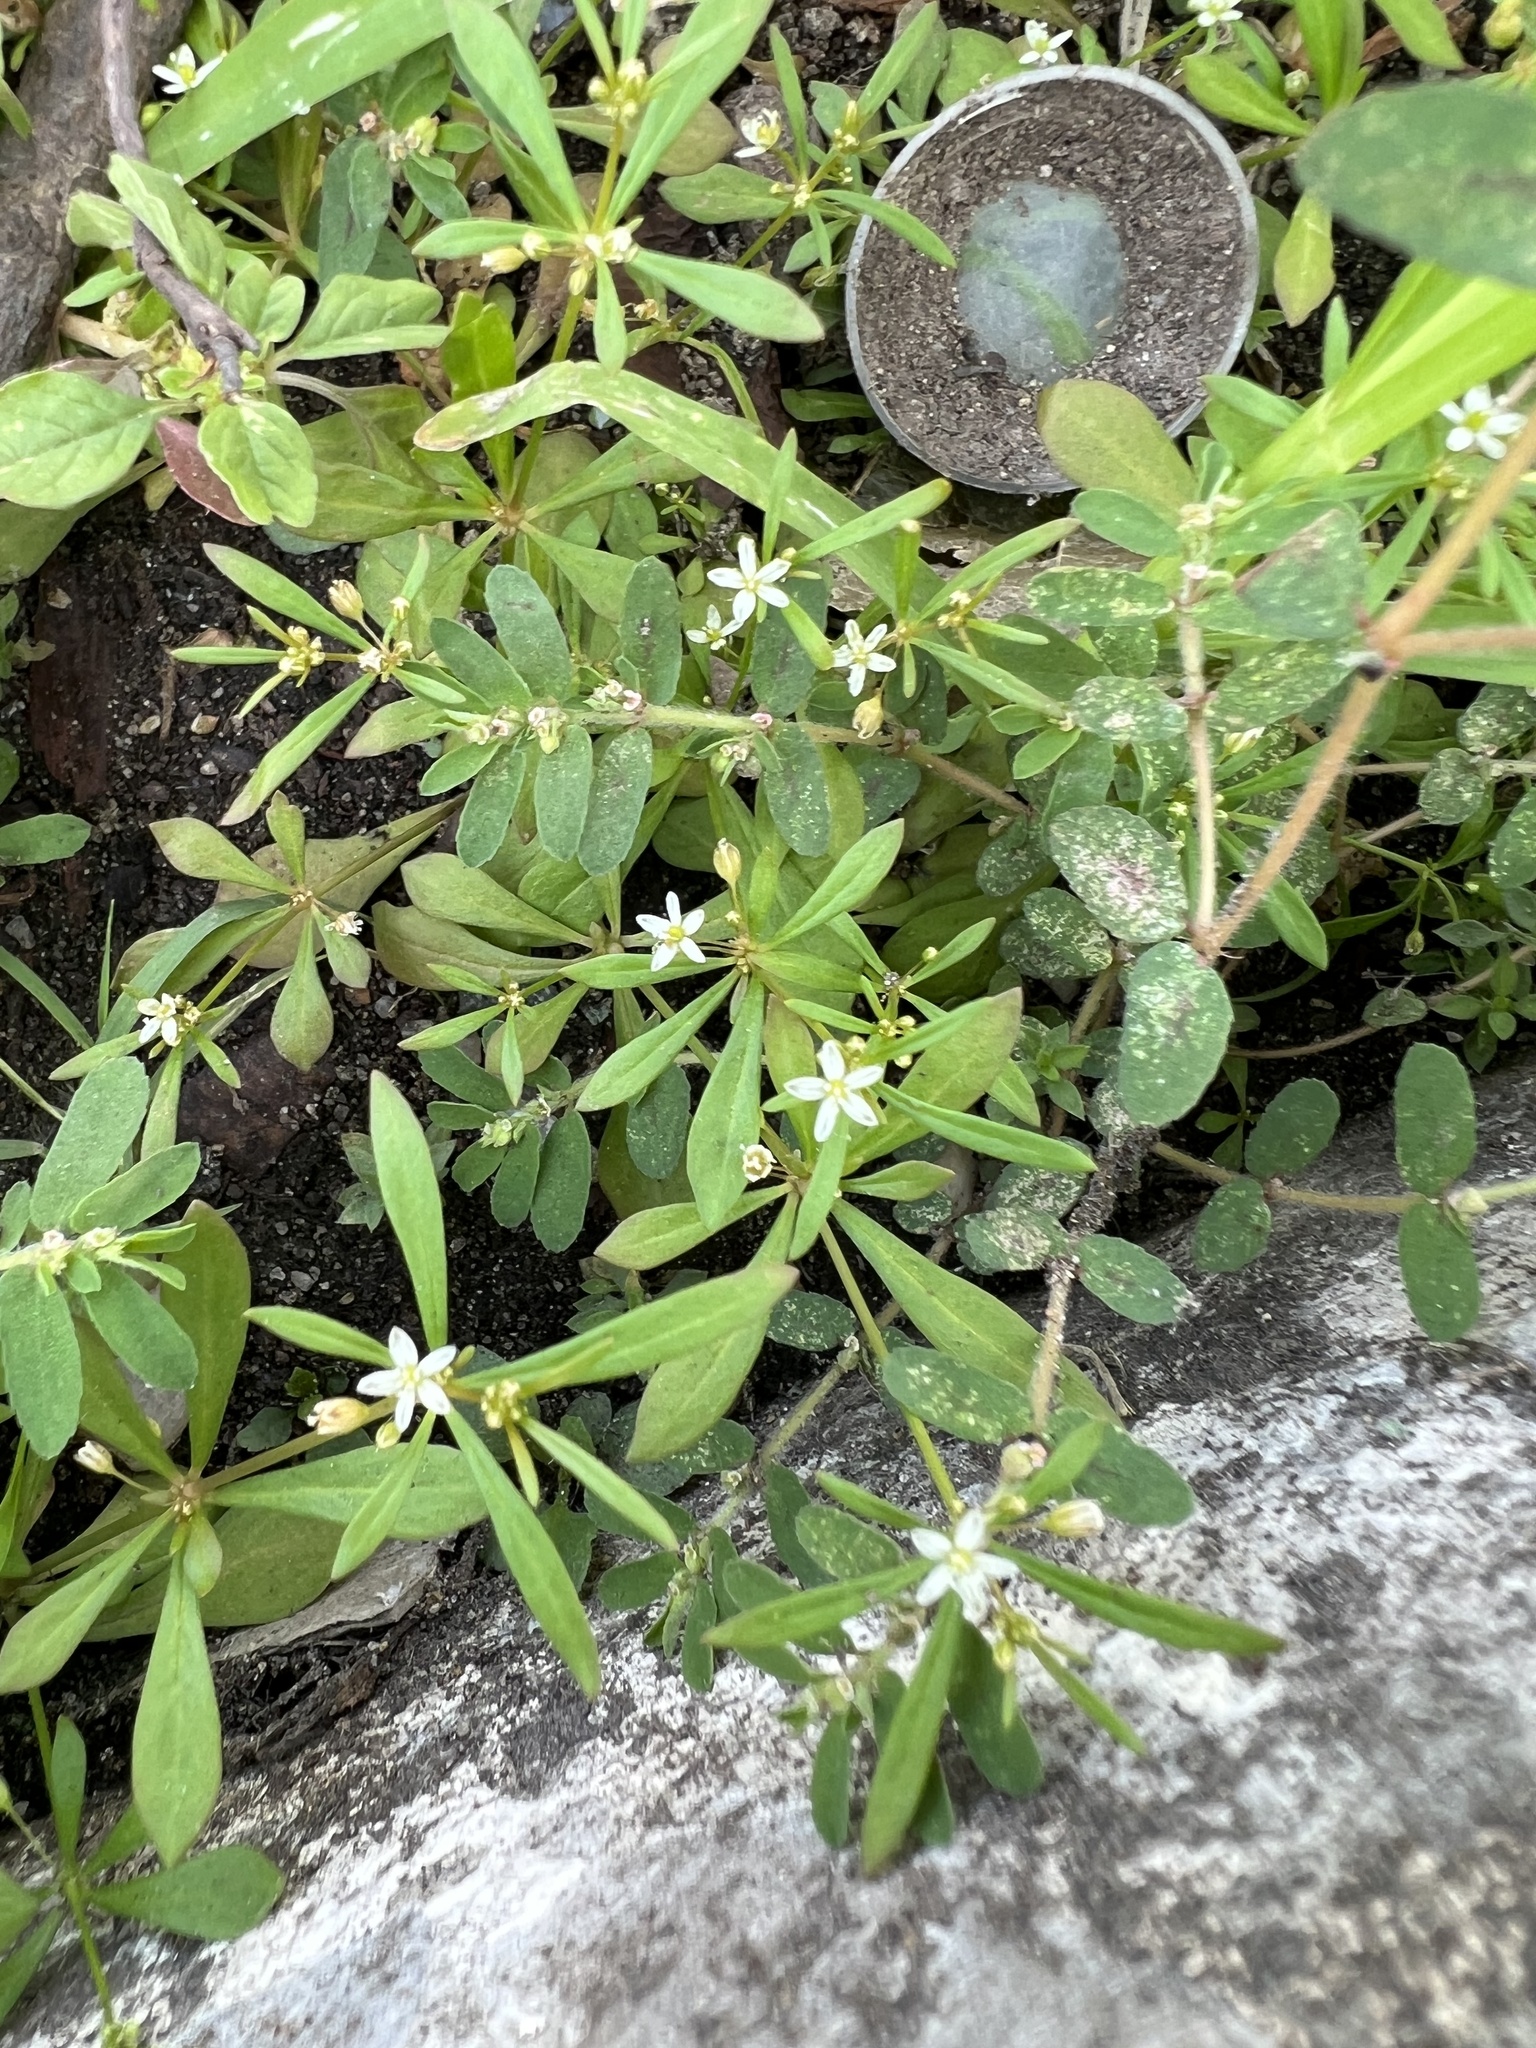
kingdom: Plantae
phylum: Tracheophyta
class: Magnoliopsida
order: Caryophyllales
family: Molluginaceae
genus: Mollugo
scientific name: Mollugo verticillata
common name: Green carpetweed
